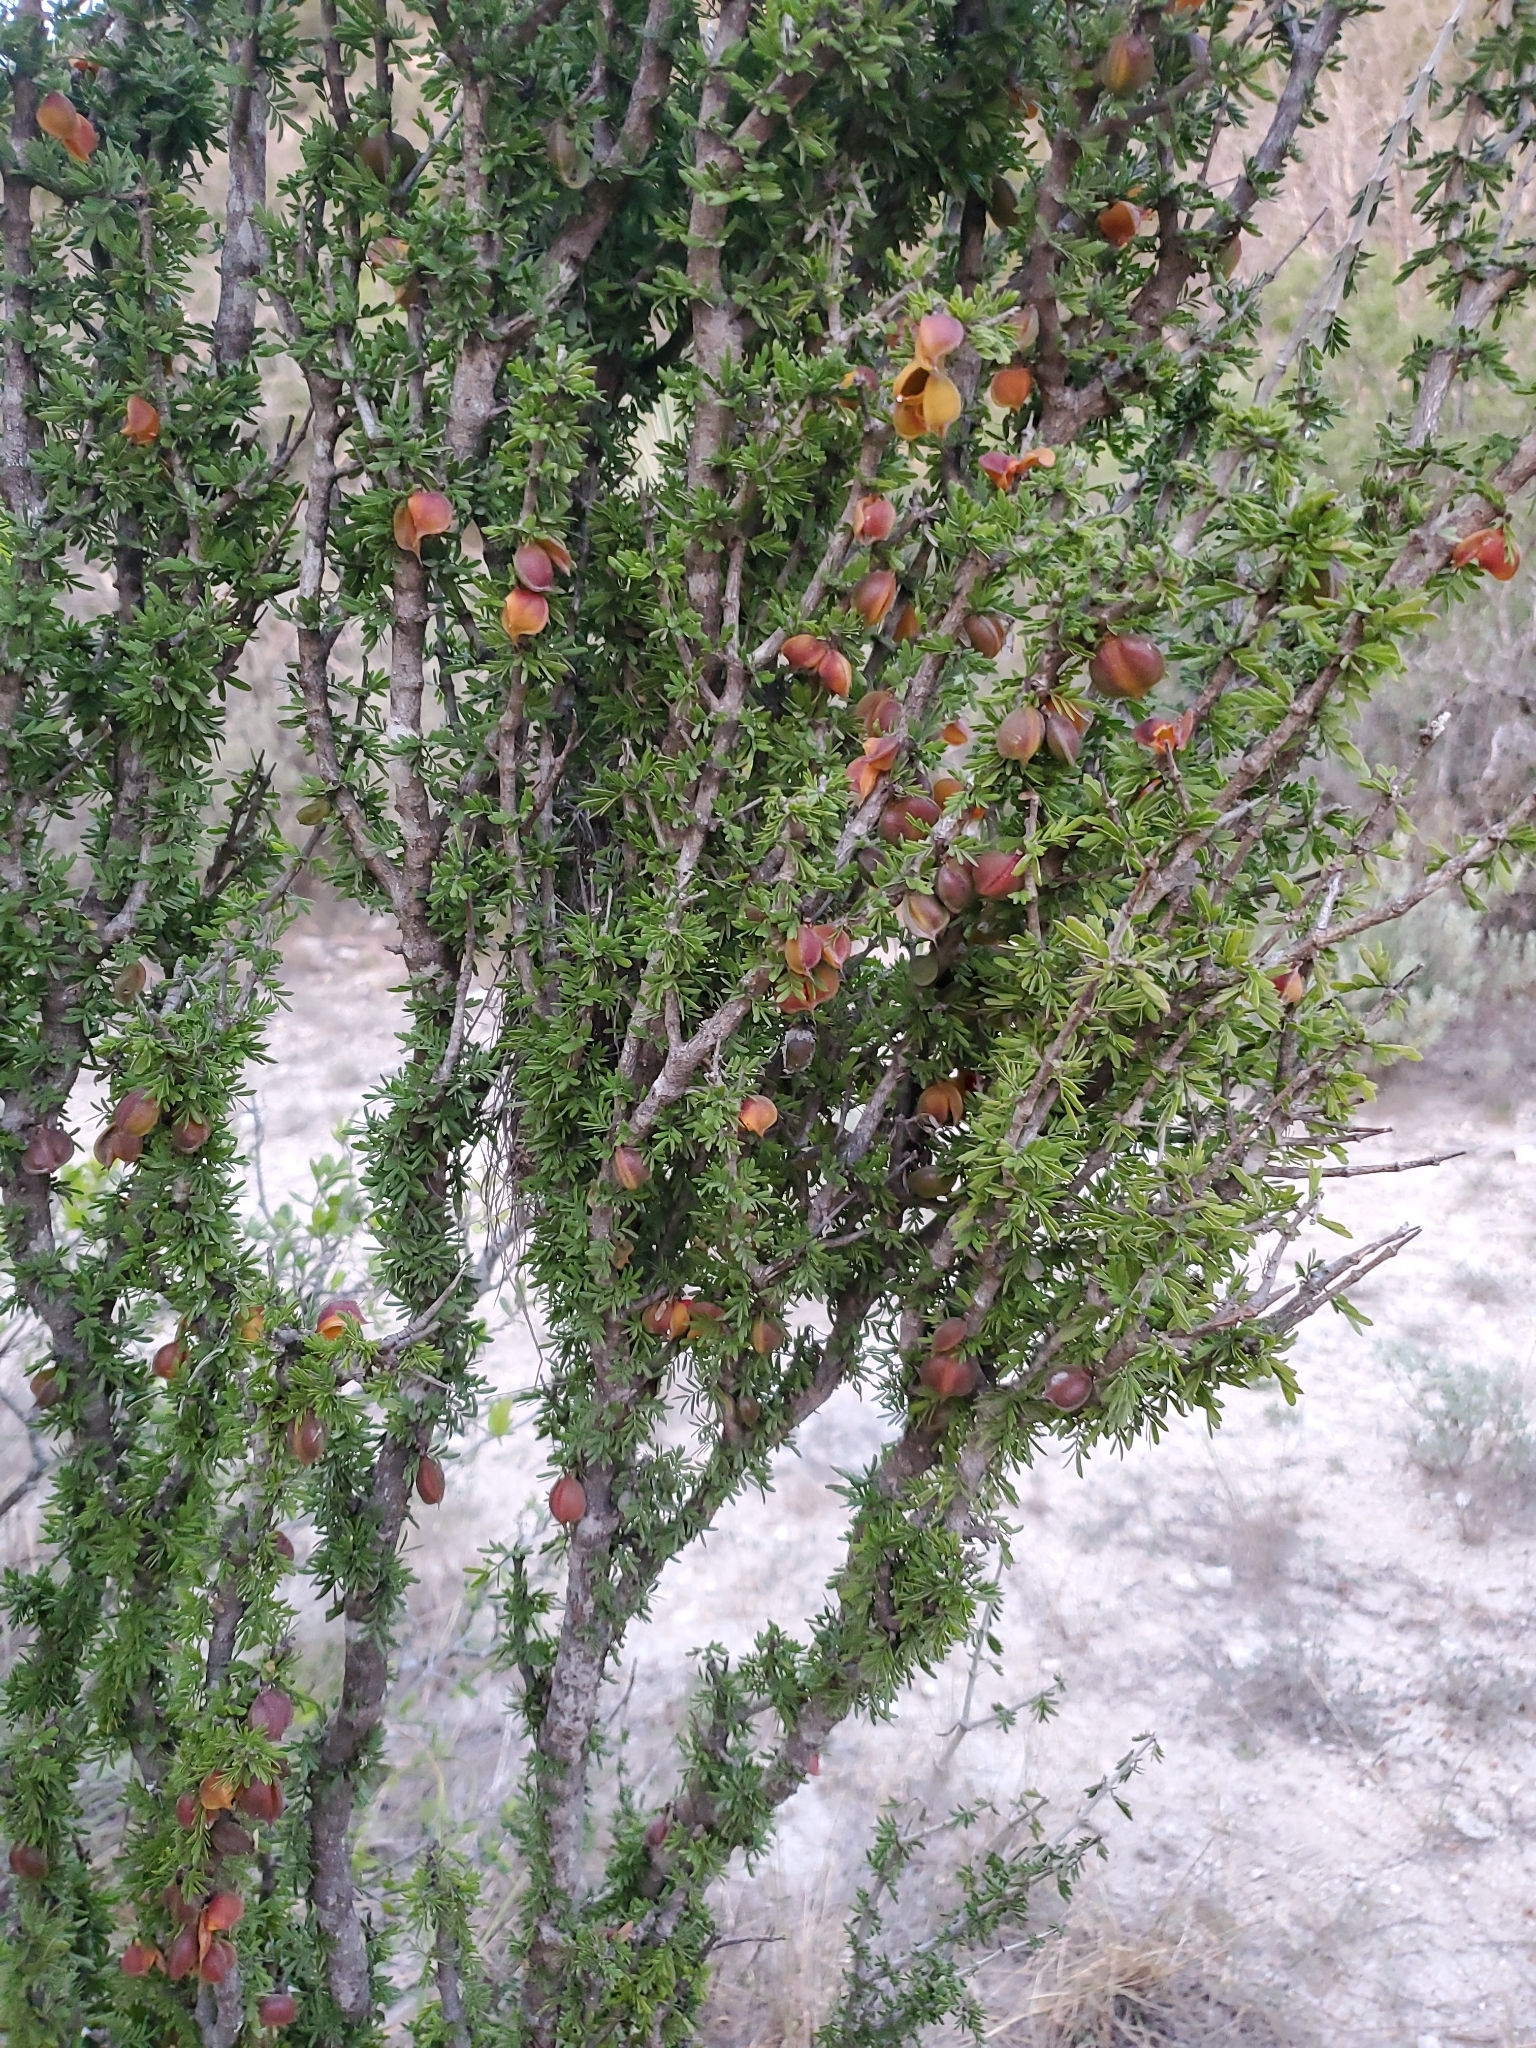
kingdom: Plantae
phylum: Tracheophyta
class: Magnoliopsida
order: Zygophyllales
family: Zygophyllaceae
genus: Porlieria
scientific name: Porlieria angustifolia
